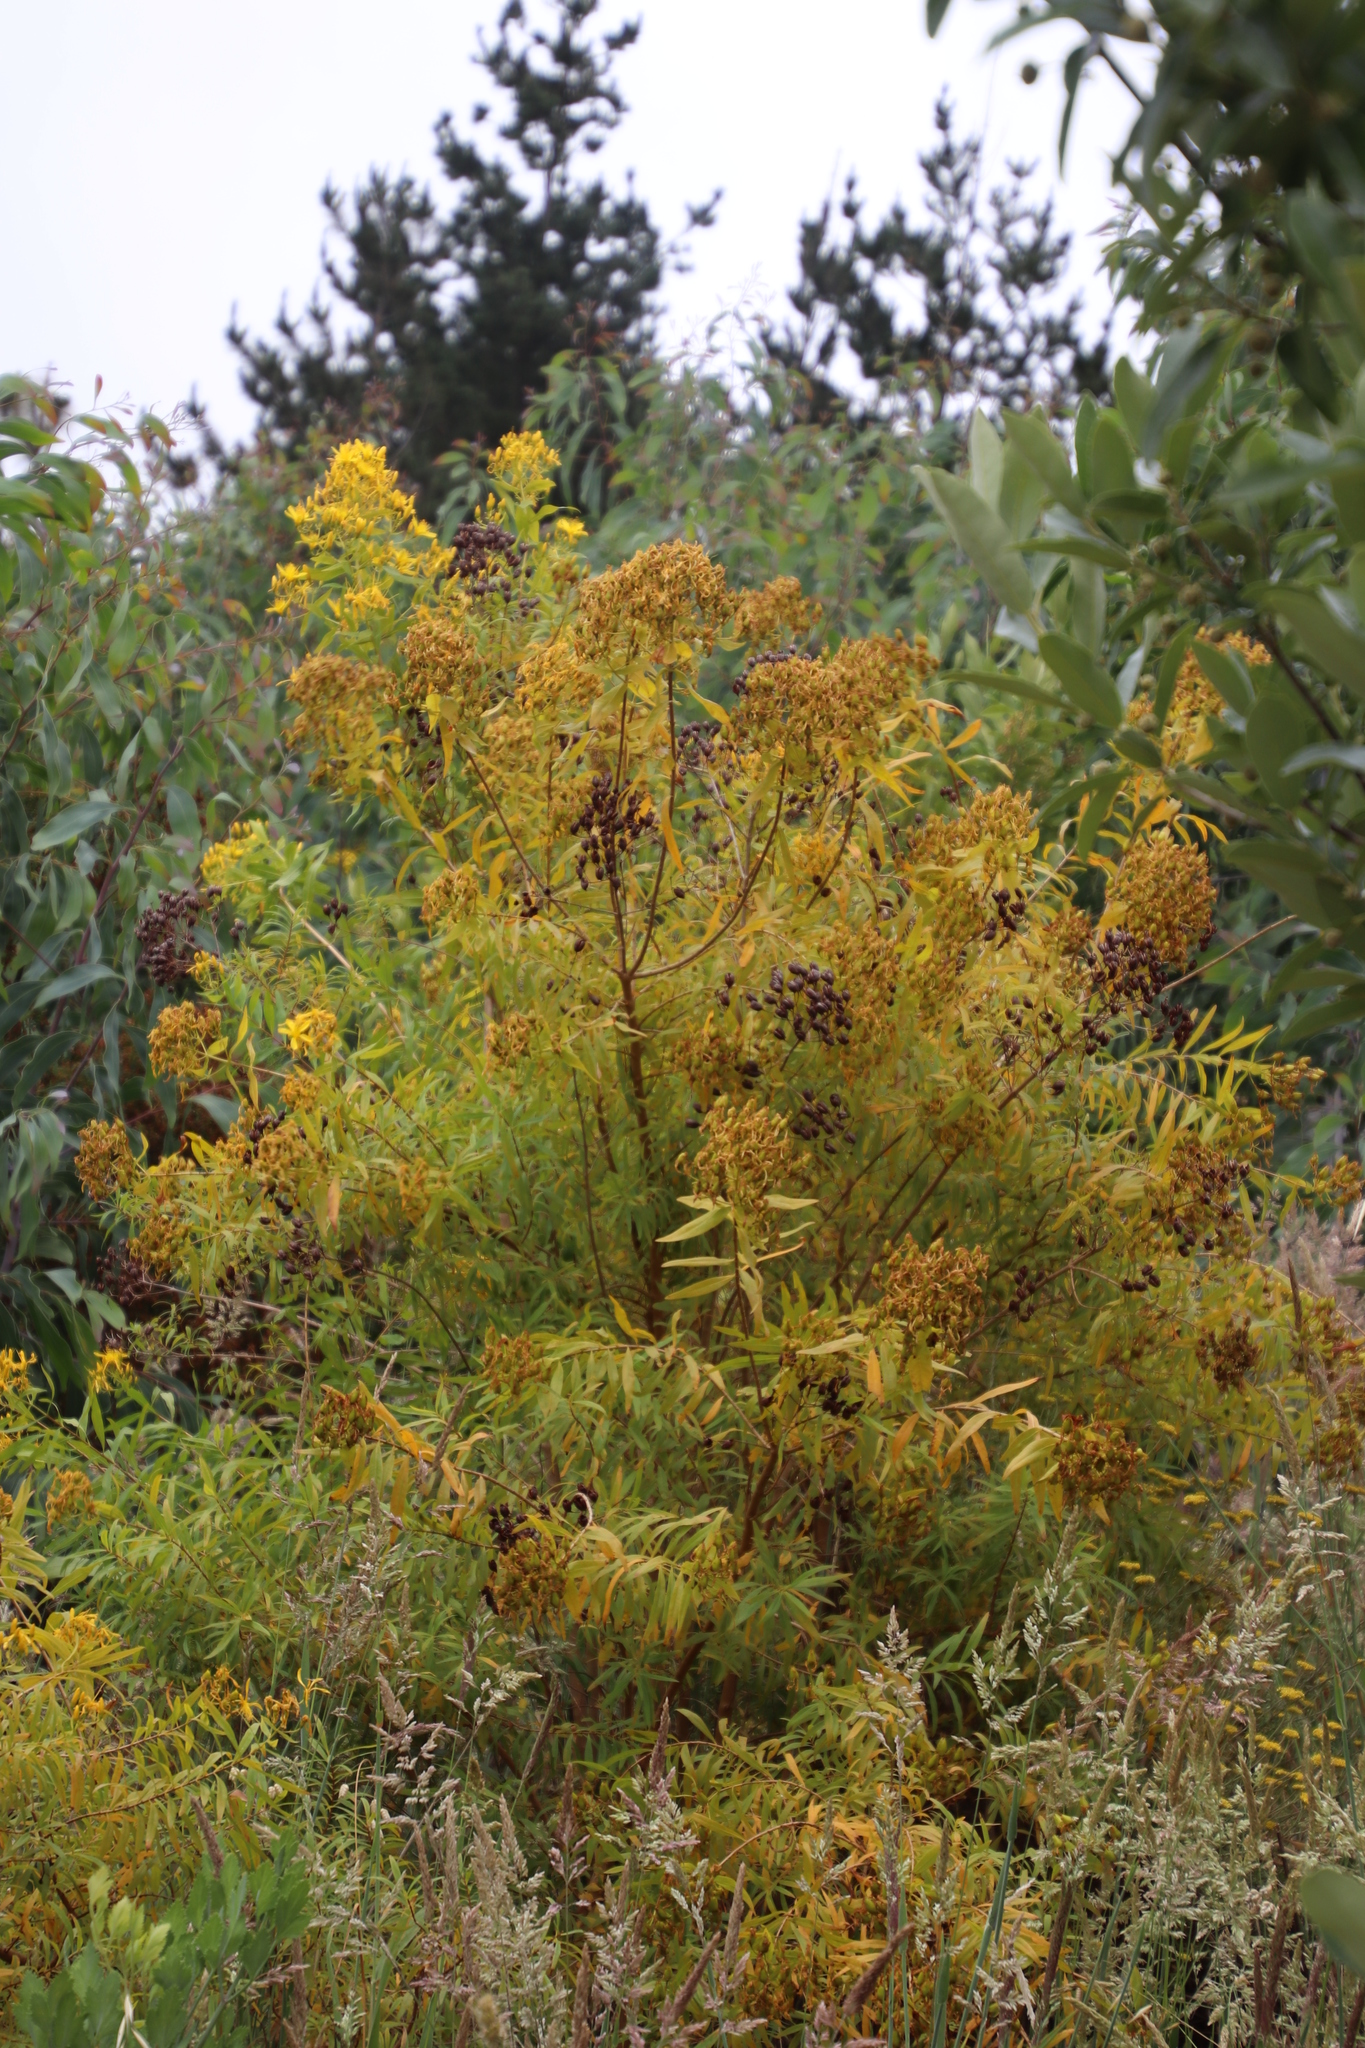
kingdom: Plantae
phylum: Tracheophyta
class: Magnoliopsida
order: Malpighiales
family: Hypericaceae
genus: Hypericum
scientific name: Hypericum canariense
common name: Canary island st. johnswort
